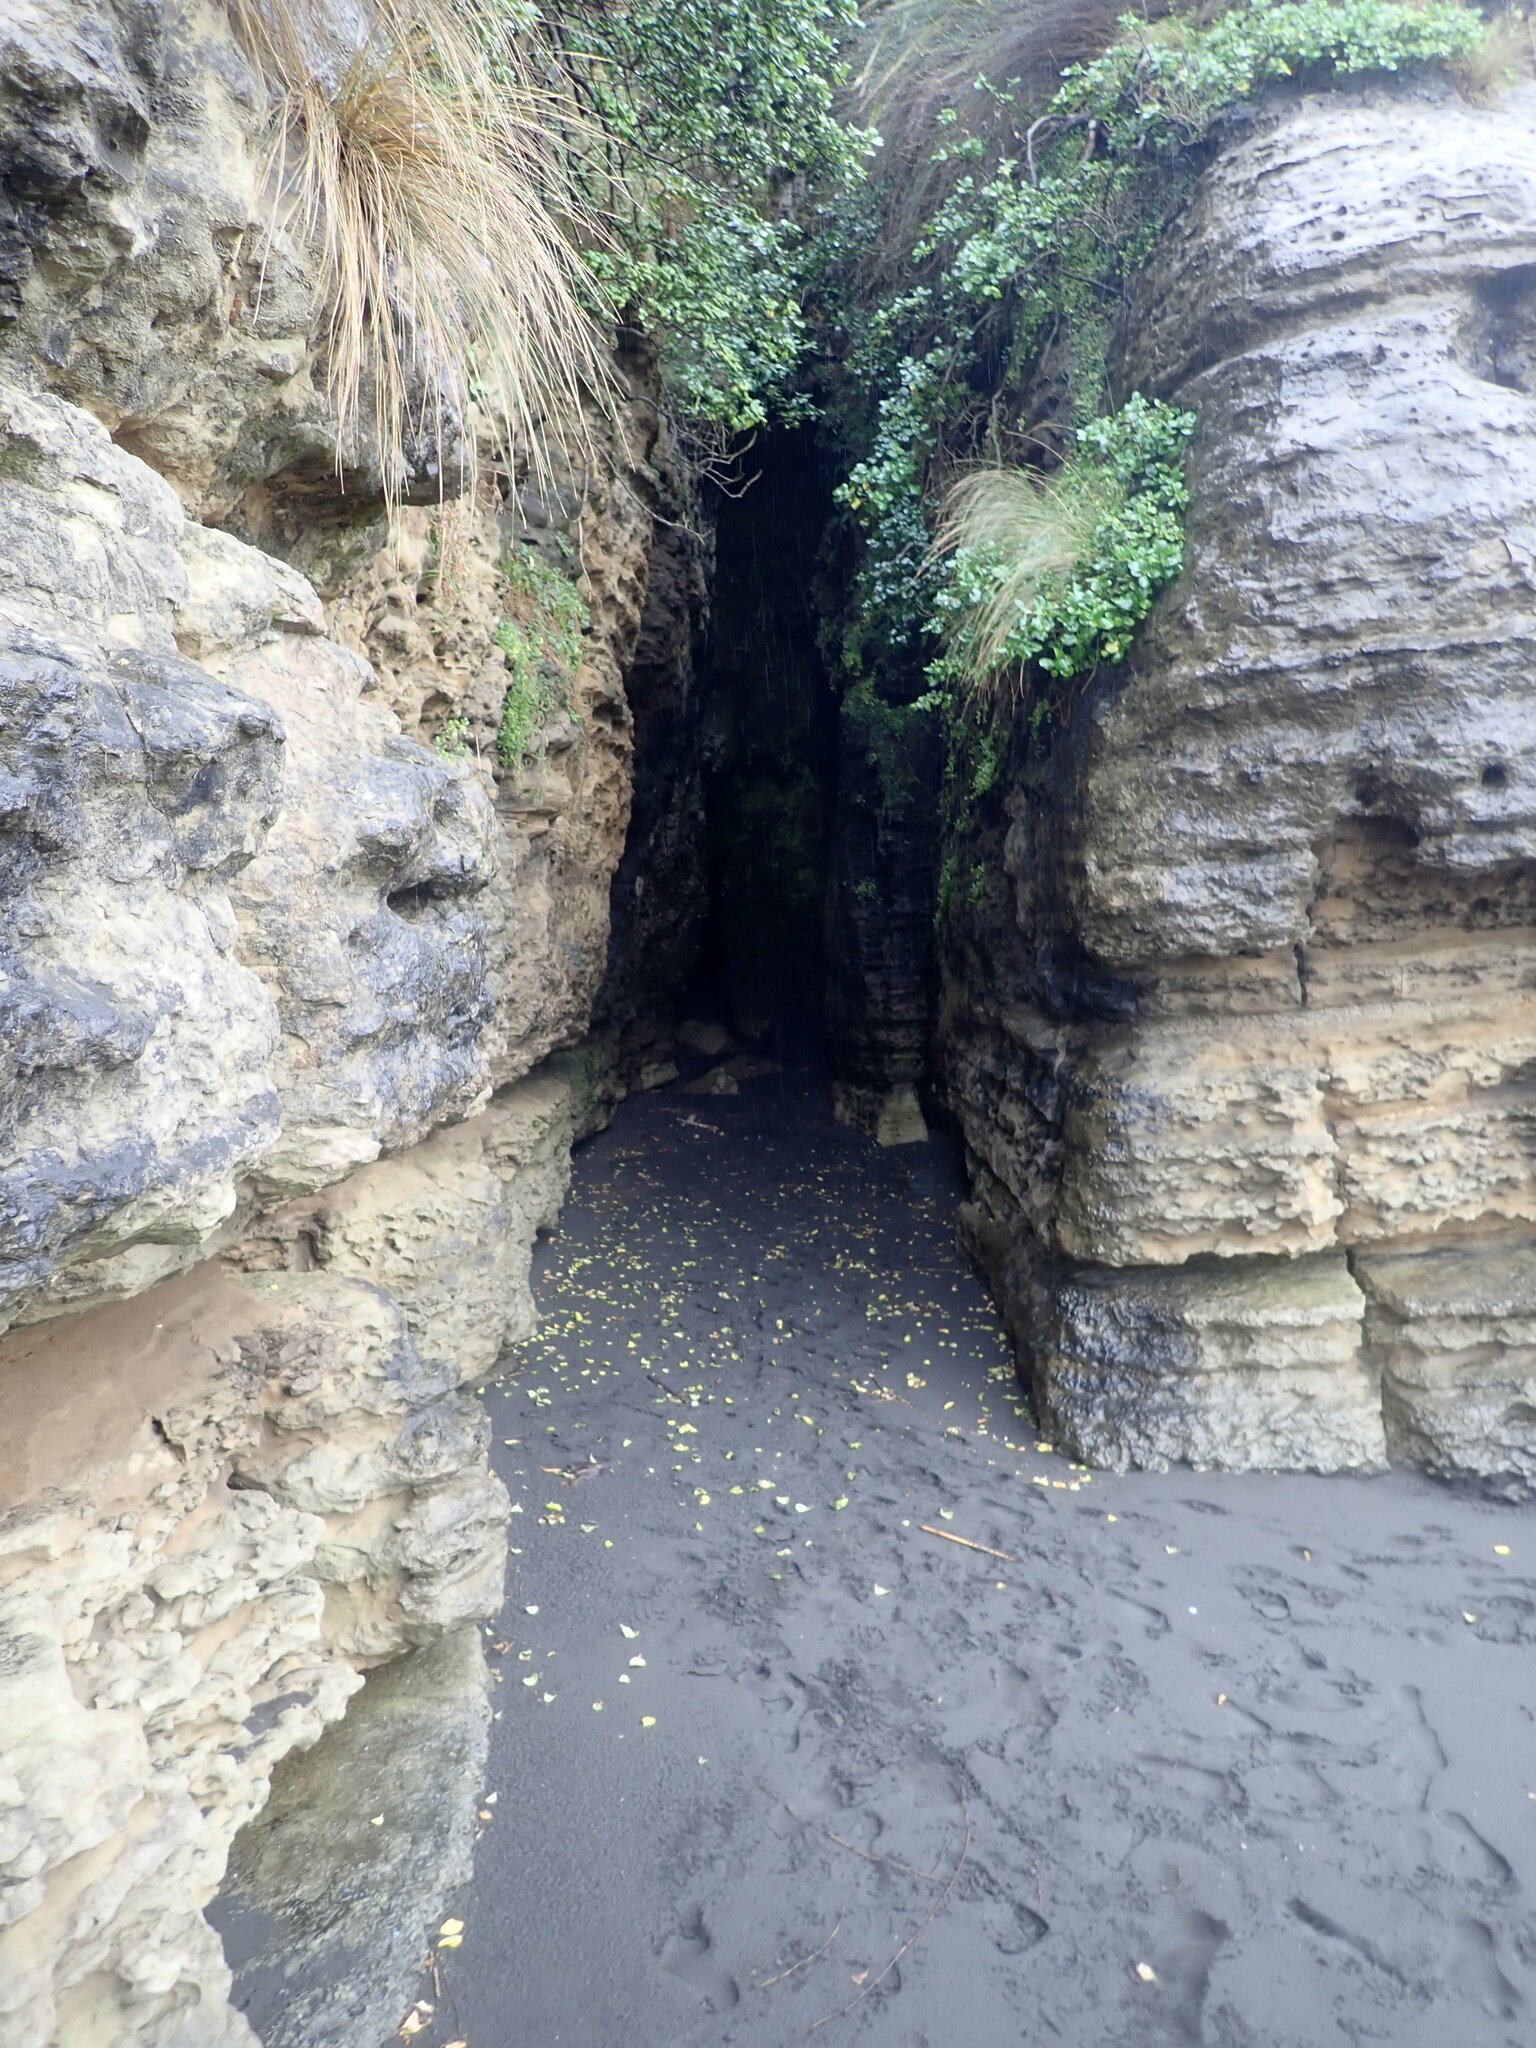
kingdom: Plantae
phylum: Tracheophyta
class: Liliopsida
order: Poales
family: Cyperaceae
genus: Isolepis
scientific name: Isolepis cernua
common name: Slender club-rush
